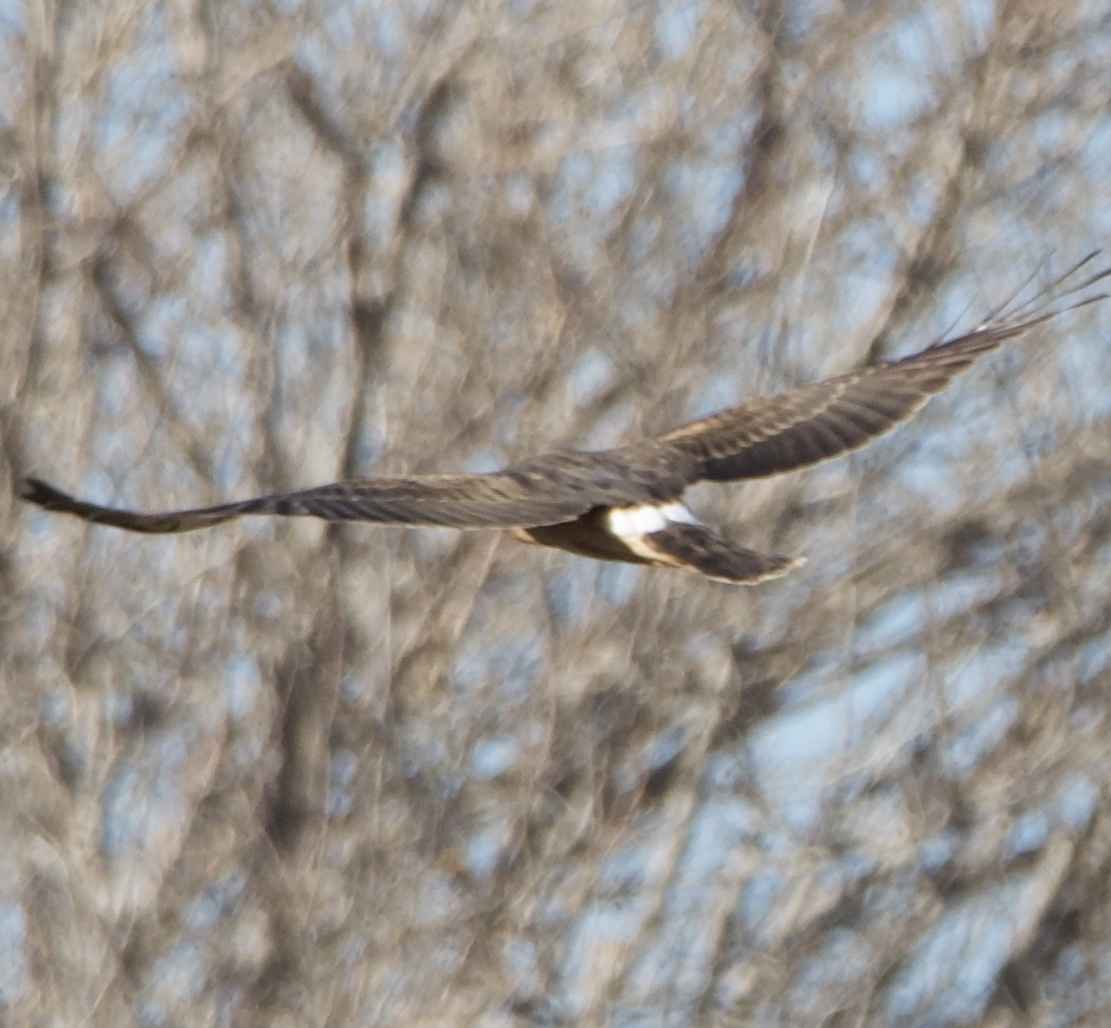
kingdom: Animalia
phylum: Chordata
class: Aves
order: Accipitriformes
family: Accipitridae
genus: Circus
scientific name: Circus cyaneus
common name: Hen harrier
